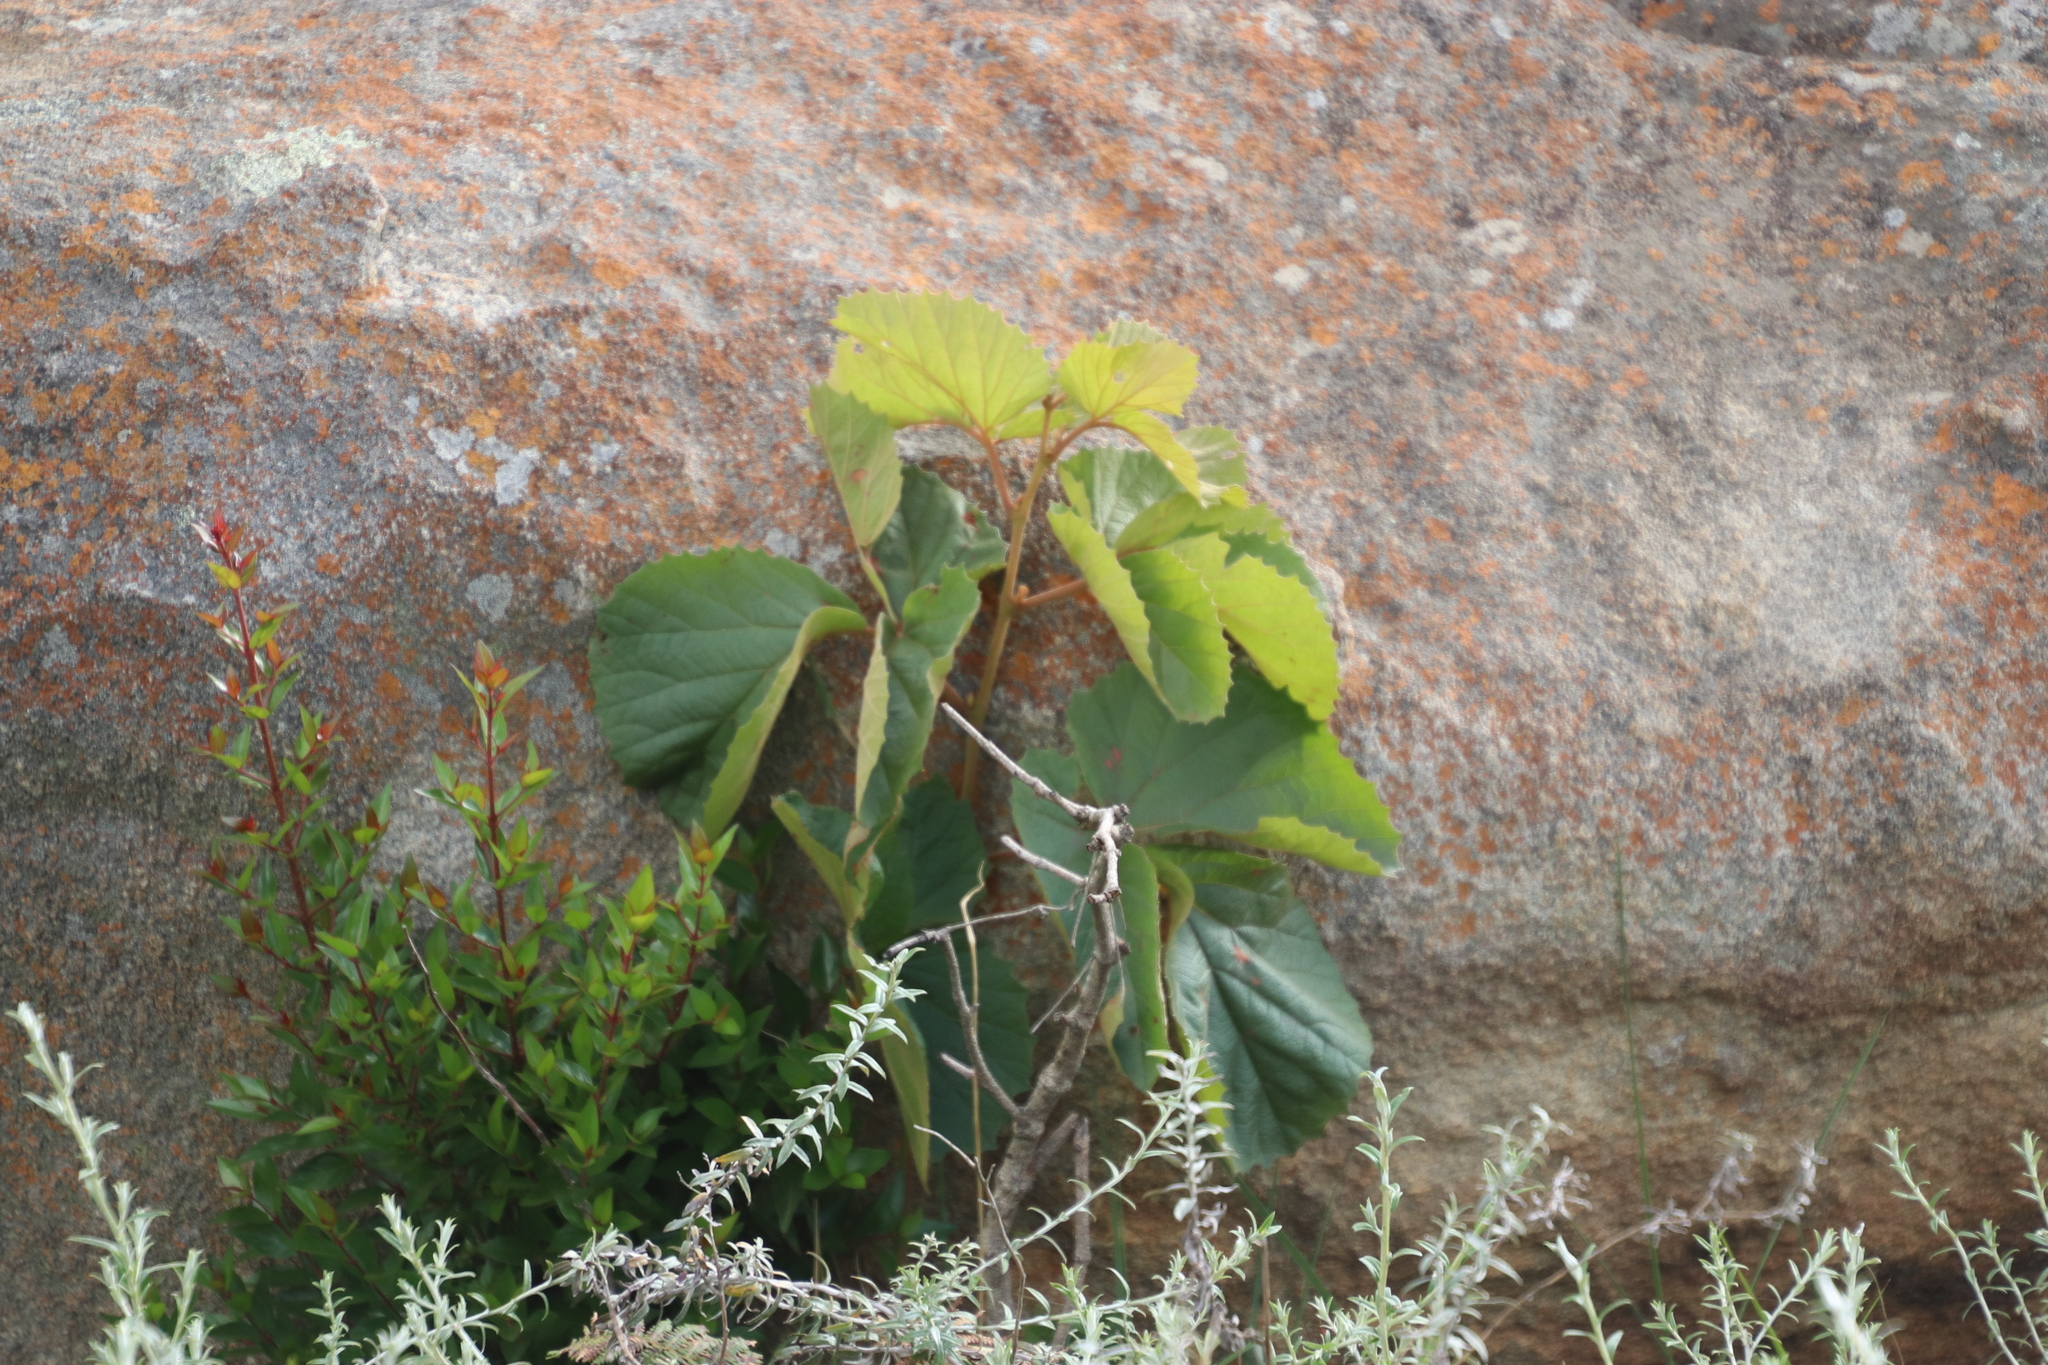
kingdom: Plantae
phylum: Tracheophyta
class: Magnoliopsida
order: Vitales
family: Vitaceae
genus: Rhoicissus
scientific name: Rhoicissus tridentata
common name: Common forest grape
